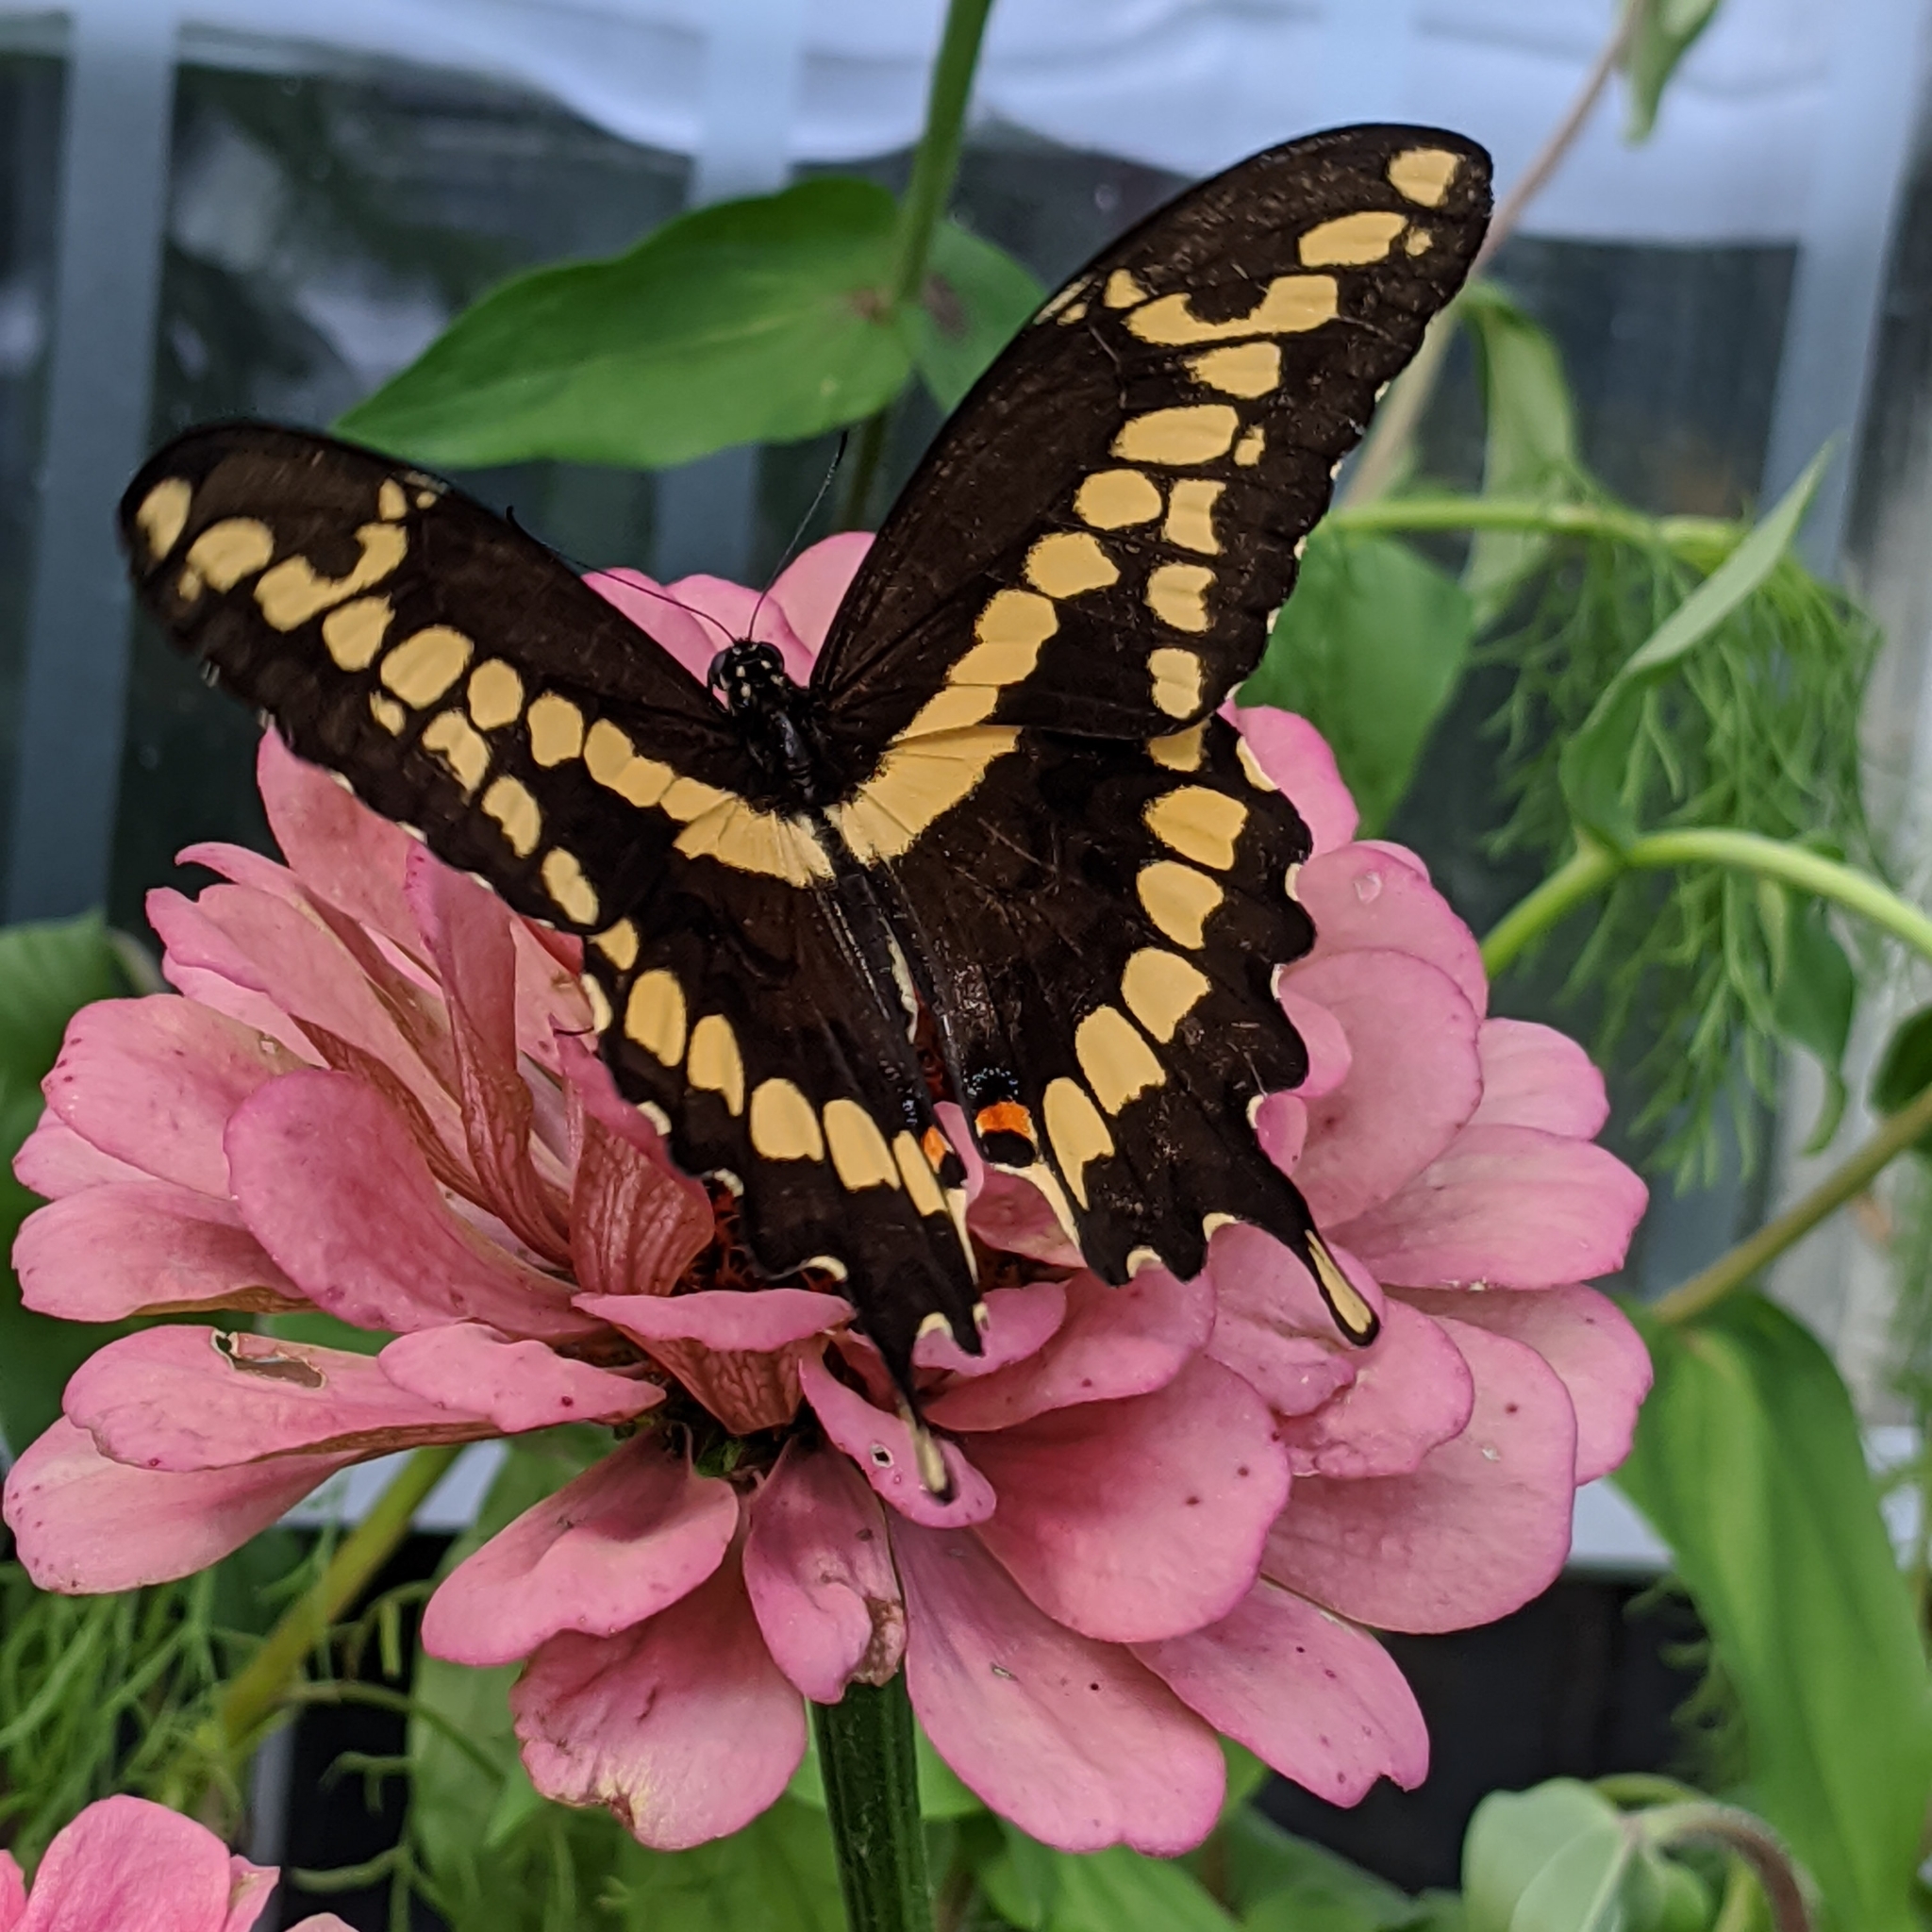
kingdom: Animalia
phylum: Arthropoda
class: Insecta
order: Lepidoptera
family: Papilionidae
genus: Papilio
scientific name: Papilio cresphontes
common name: Giant swallowtail
